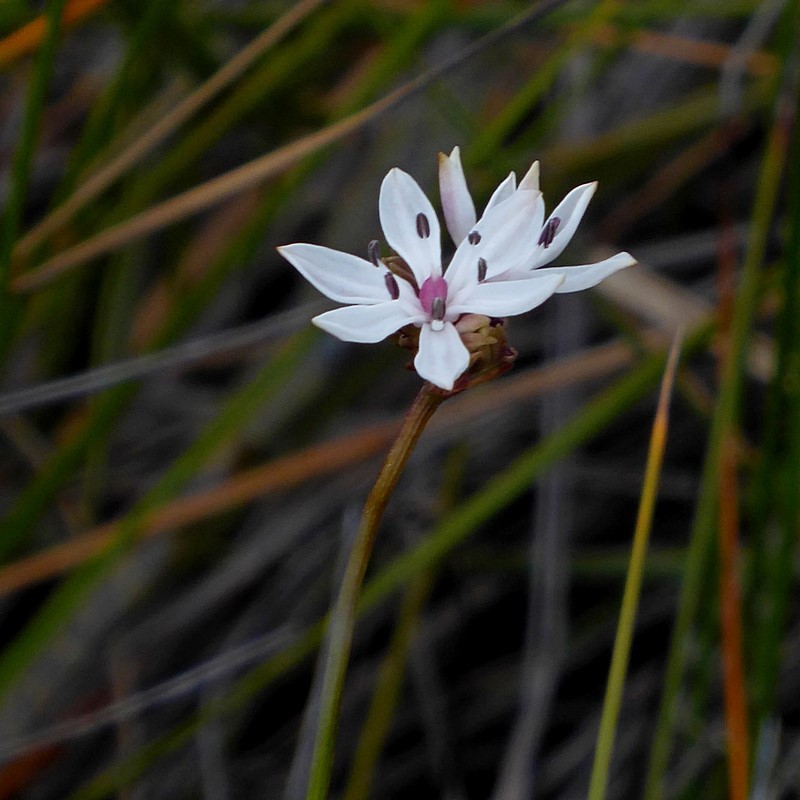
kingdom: Plantae
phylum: Tracheophyta
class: Liliopsida
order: Liliales
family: Colchicaceae
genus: Burchardia
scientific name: Burchardia umbellata
